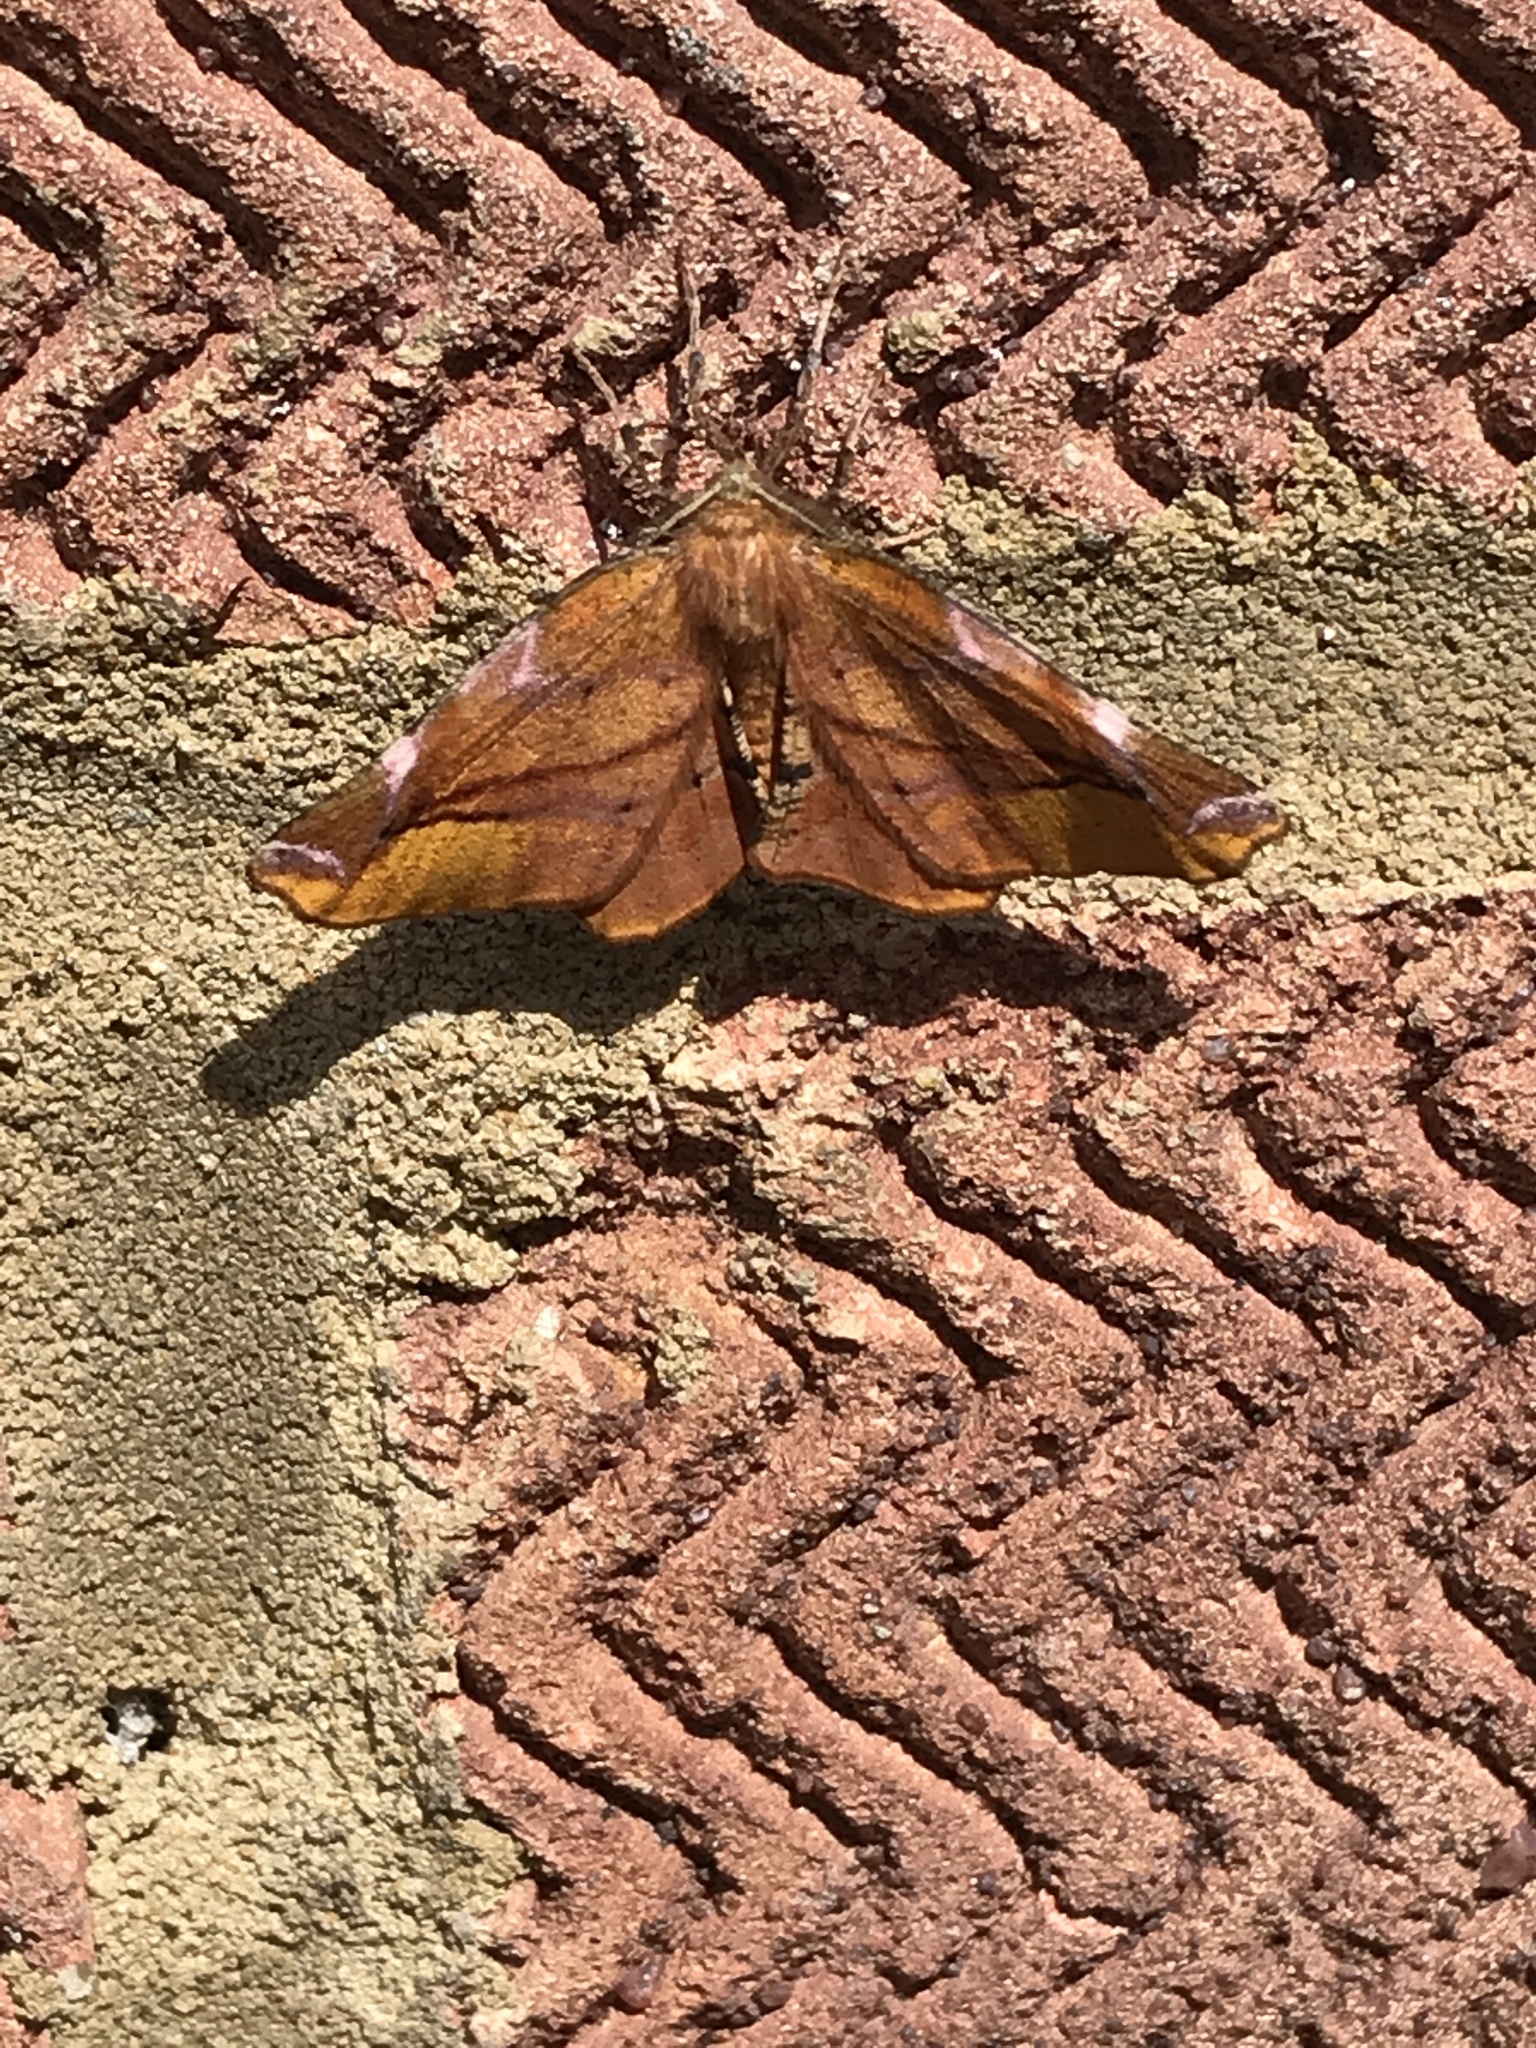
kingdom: Animalia
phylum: Arthropoda
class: Insecta
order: Lepidoptera
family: Geometridae
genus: Apeira
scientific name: Apeira syringaria
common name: Lilac beauty
